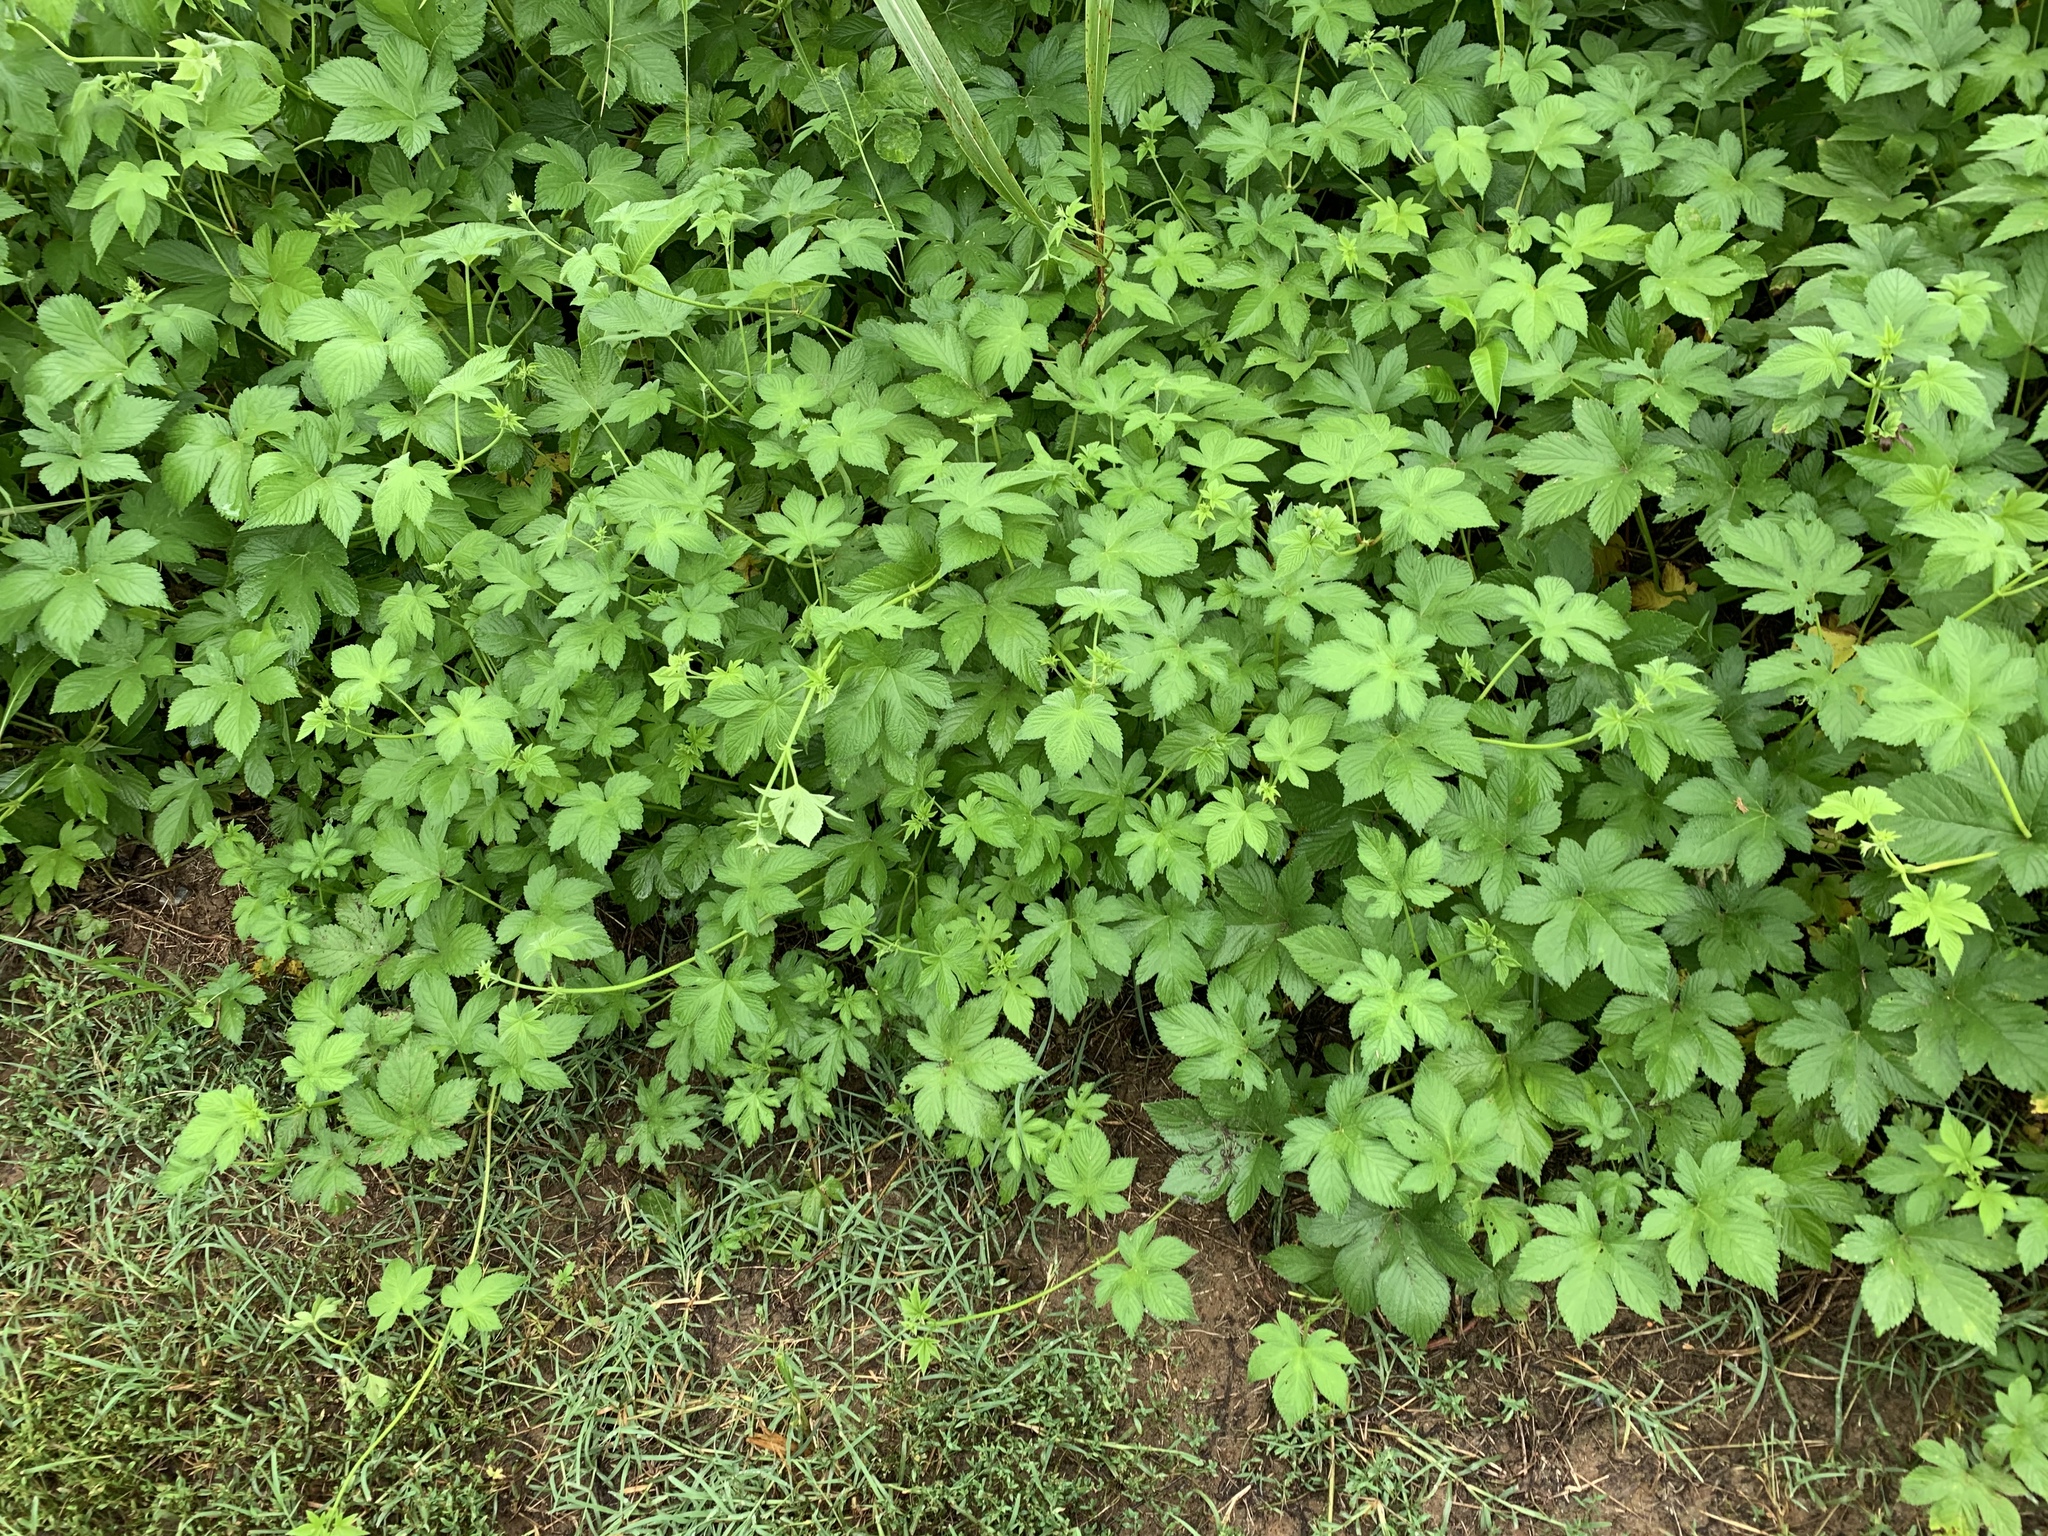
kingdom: Plantae
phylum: Tracheophyta
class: Magnoliopsida
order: Rosales
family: Cannabaceae
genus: Humulus
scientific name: Humulus scandens
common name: Japanese hop
